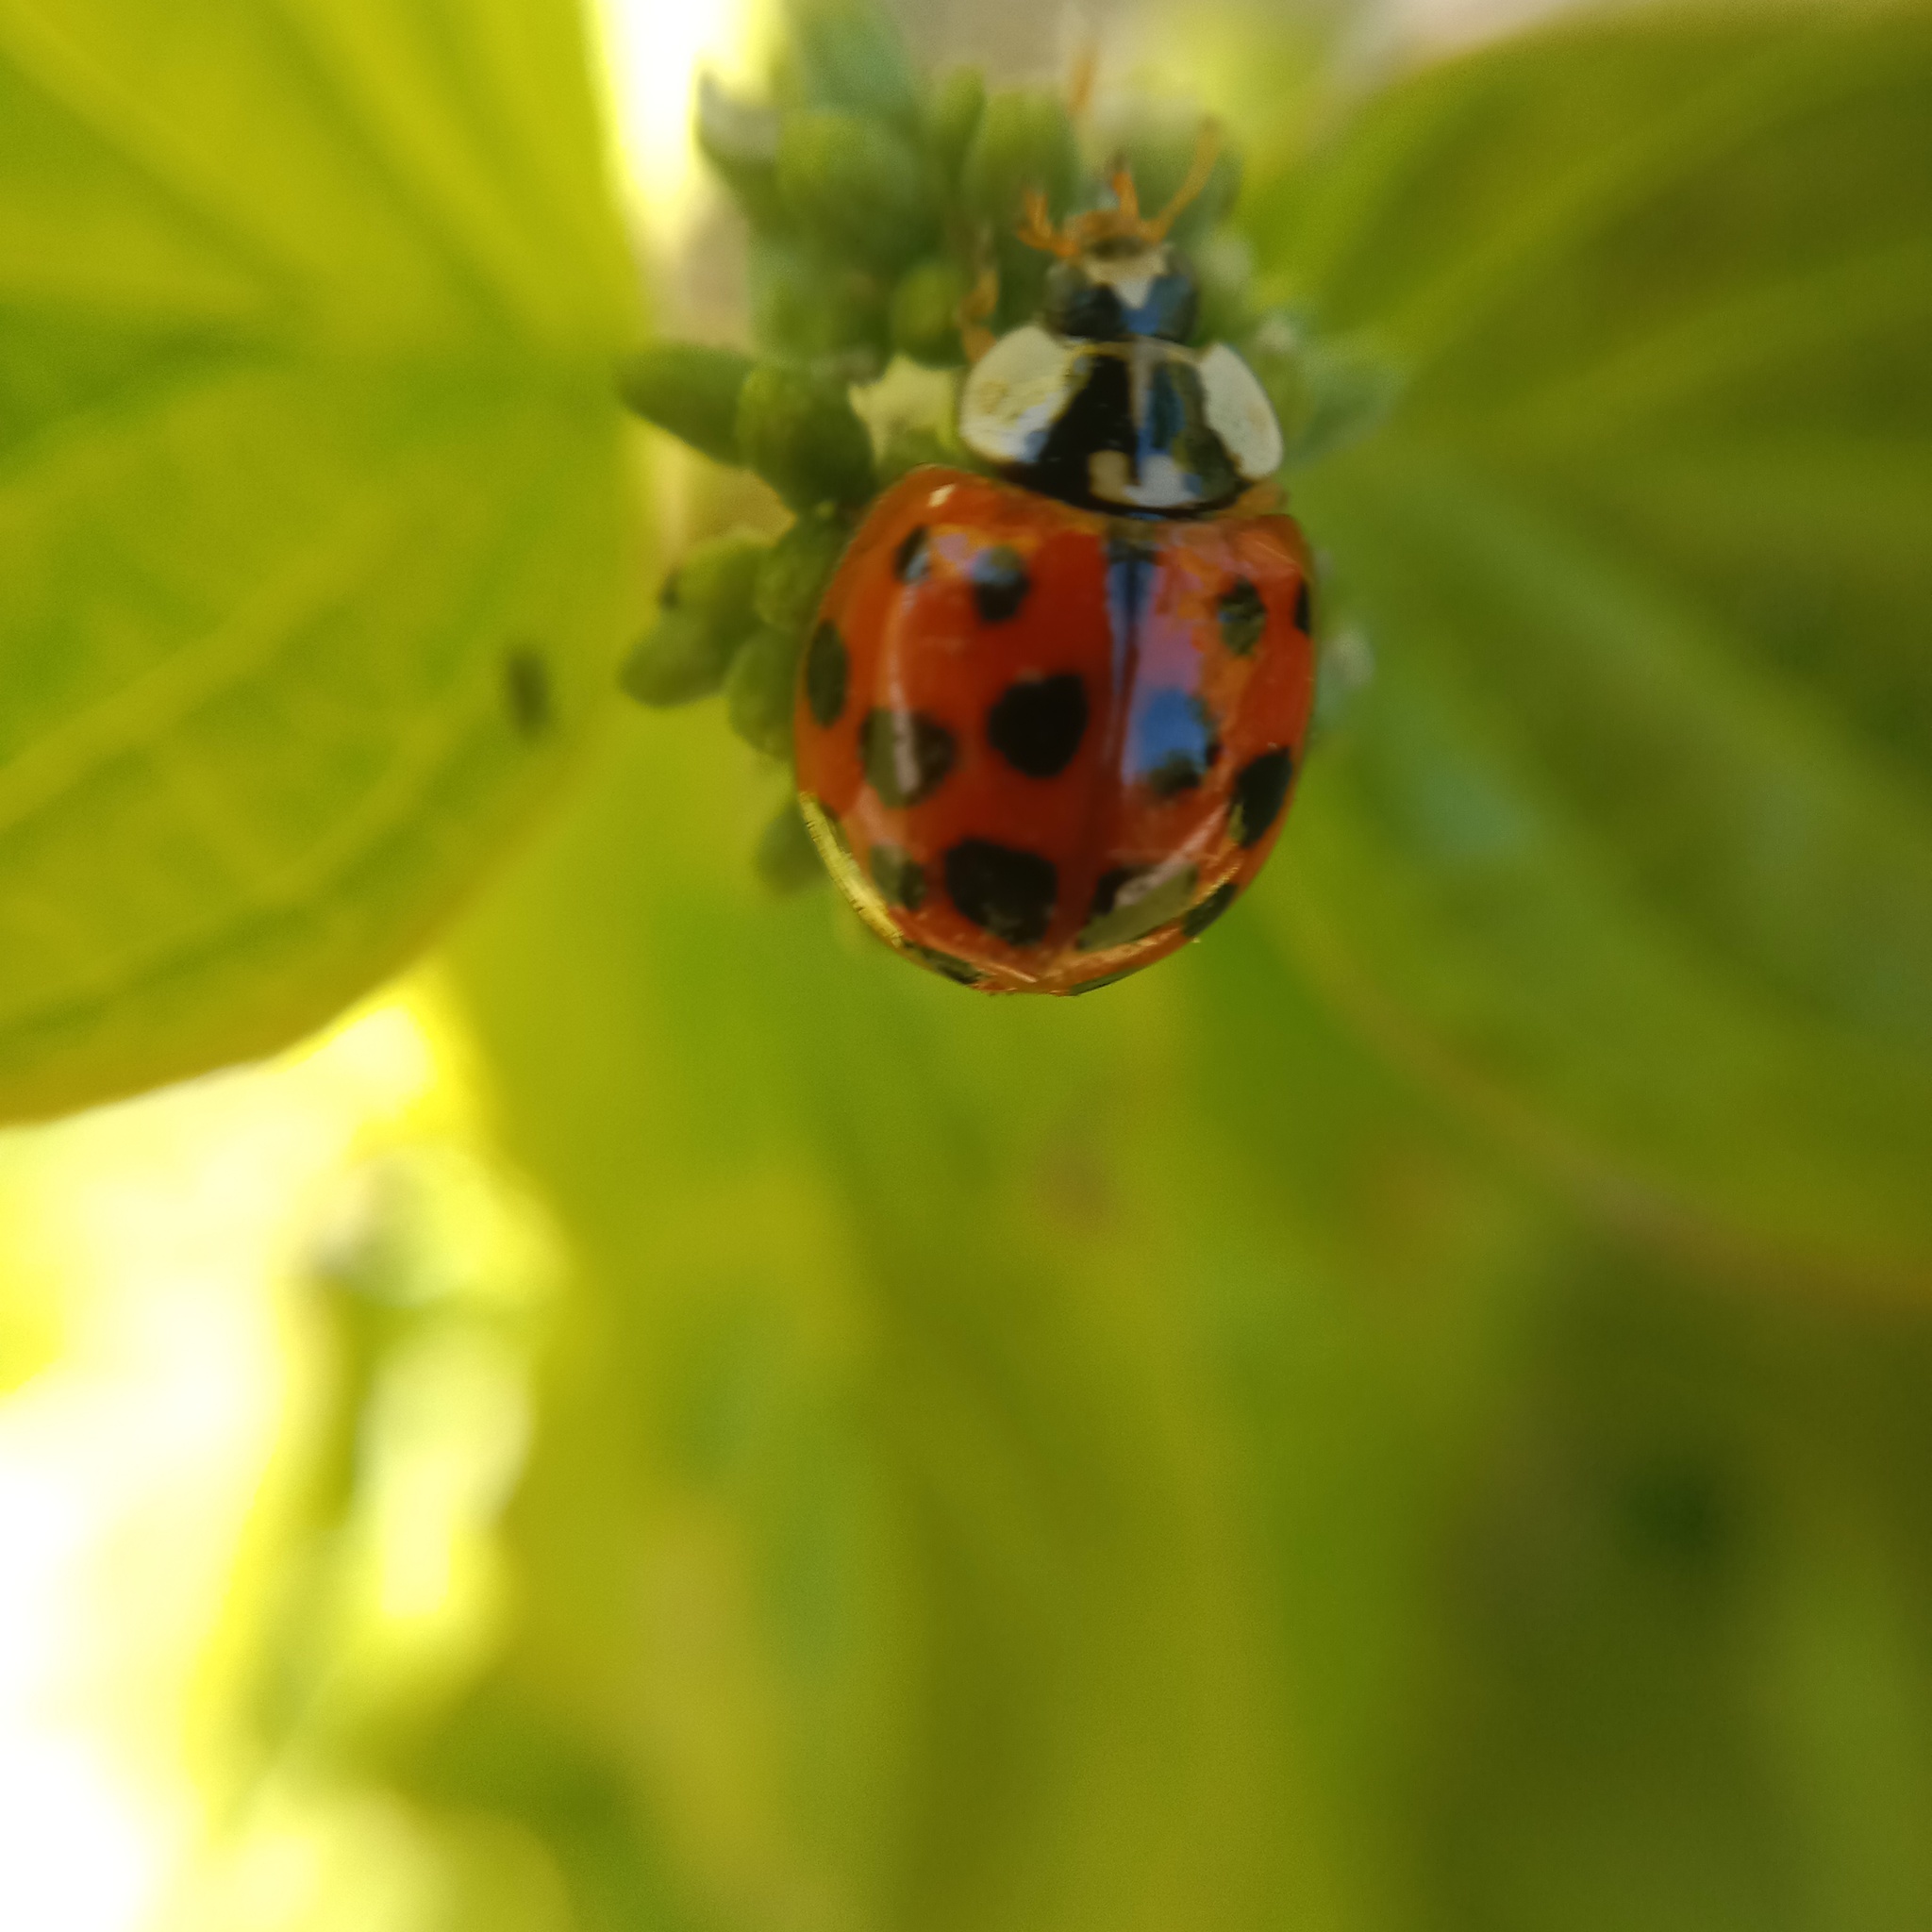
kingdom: Animalia
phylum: Arthropoda
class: Insecta
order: Coleoptera
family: Coccinellidae
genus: Harmonia
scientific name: Harmonia axyridis
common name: Harlequin ladybird
